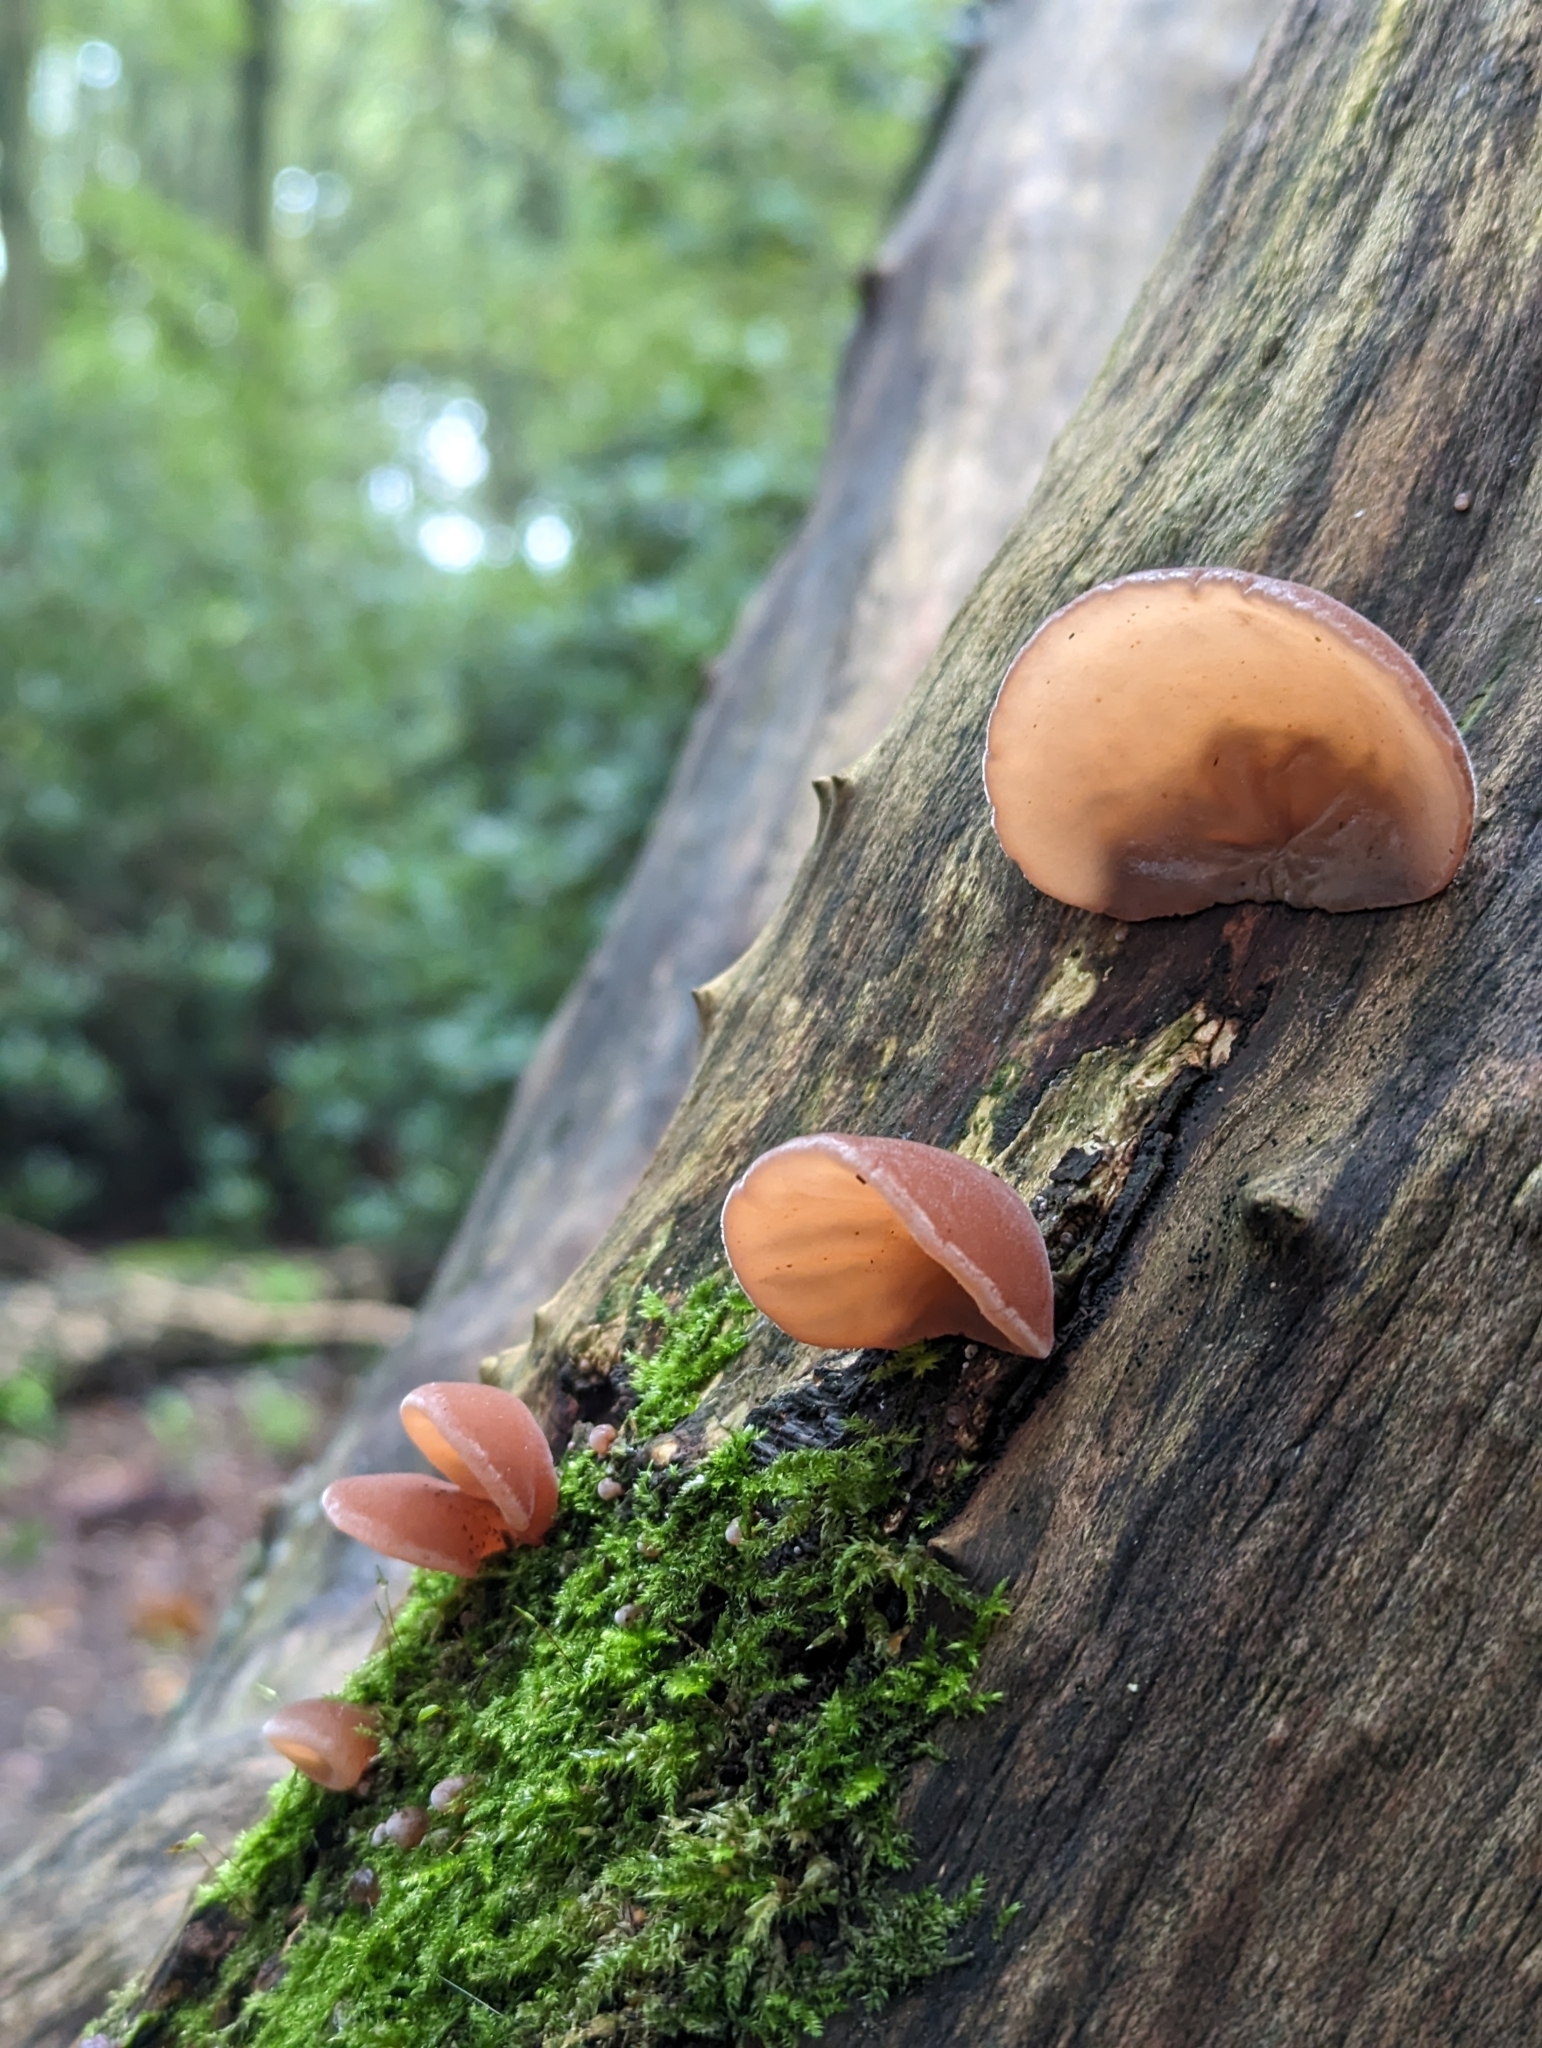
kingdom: Fungi
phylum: Basidiomycota
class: Agaricomycetes
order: Auriculariales
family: Auriculariaceae
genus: Auricularia
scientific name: Auricularia auricula-judae
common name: Jelly ear
